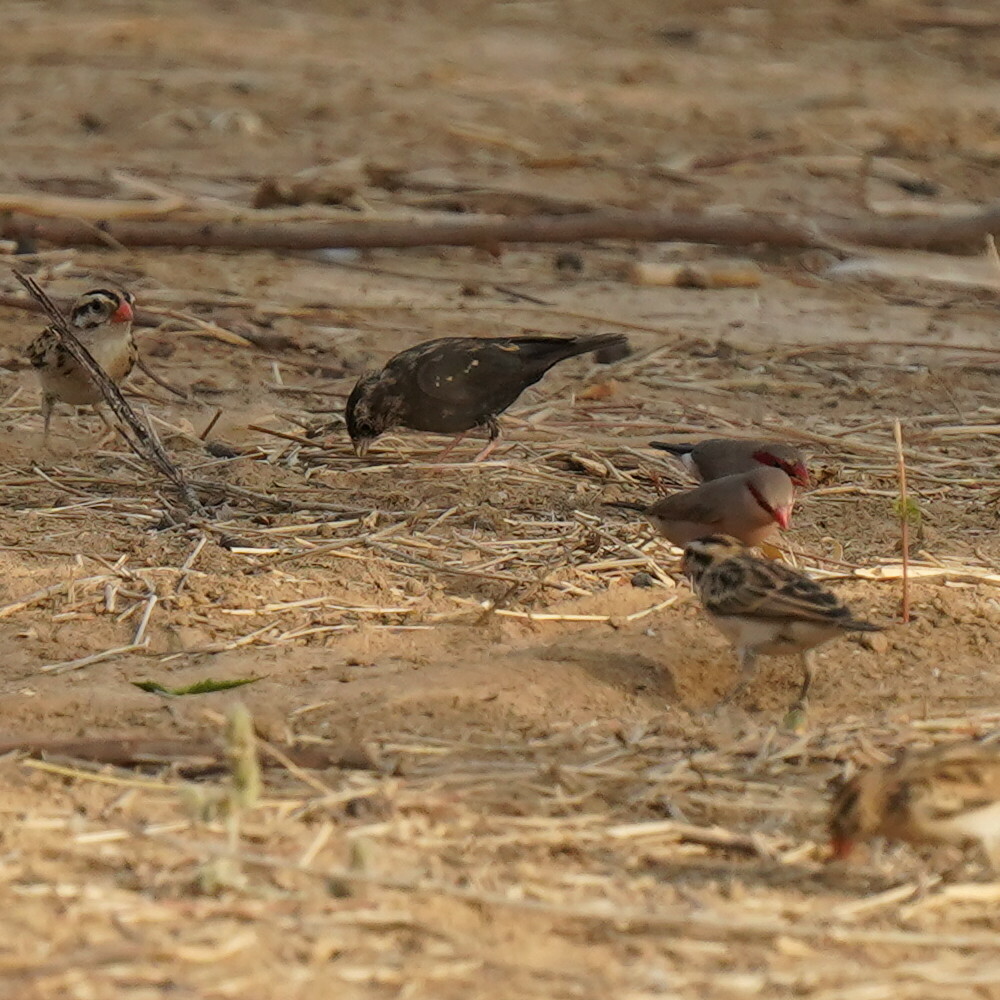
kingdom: Animalia
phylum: Chordata
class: Aves
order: Passeriformes
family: Viduidae
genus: Vidua
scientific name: Vidua chalybeata
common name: Village indigobird
